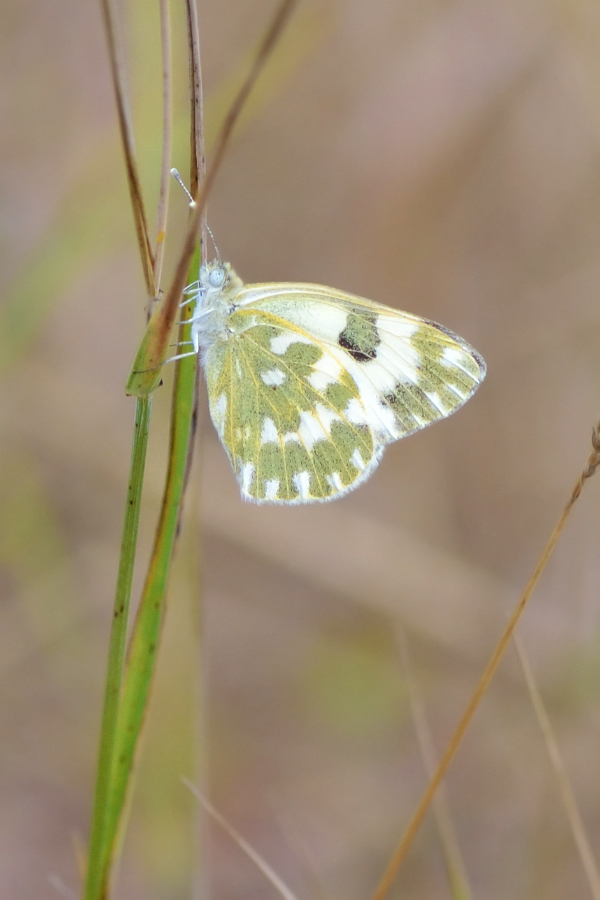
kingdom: Animalia
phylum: Arthropoda
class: Insecta
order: Lepidoptera
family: Pieridae
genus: Pontia
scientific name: Pontia edusa
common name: Eastern bath white
